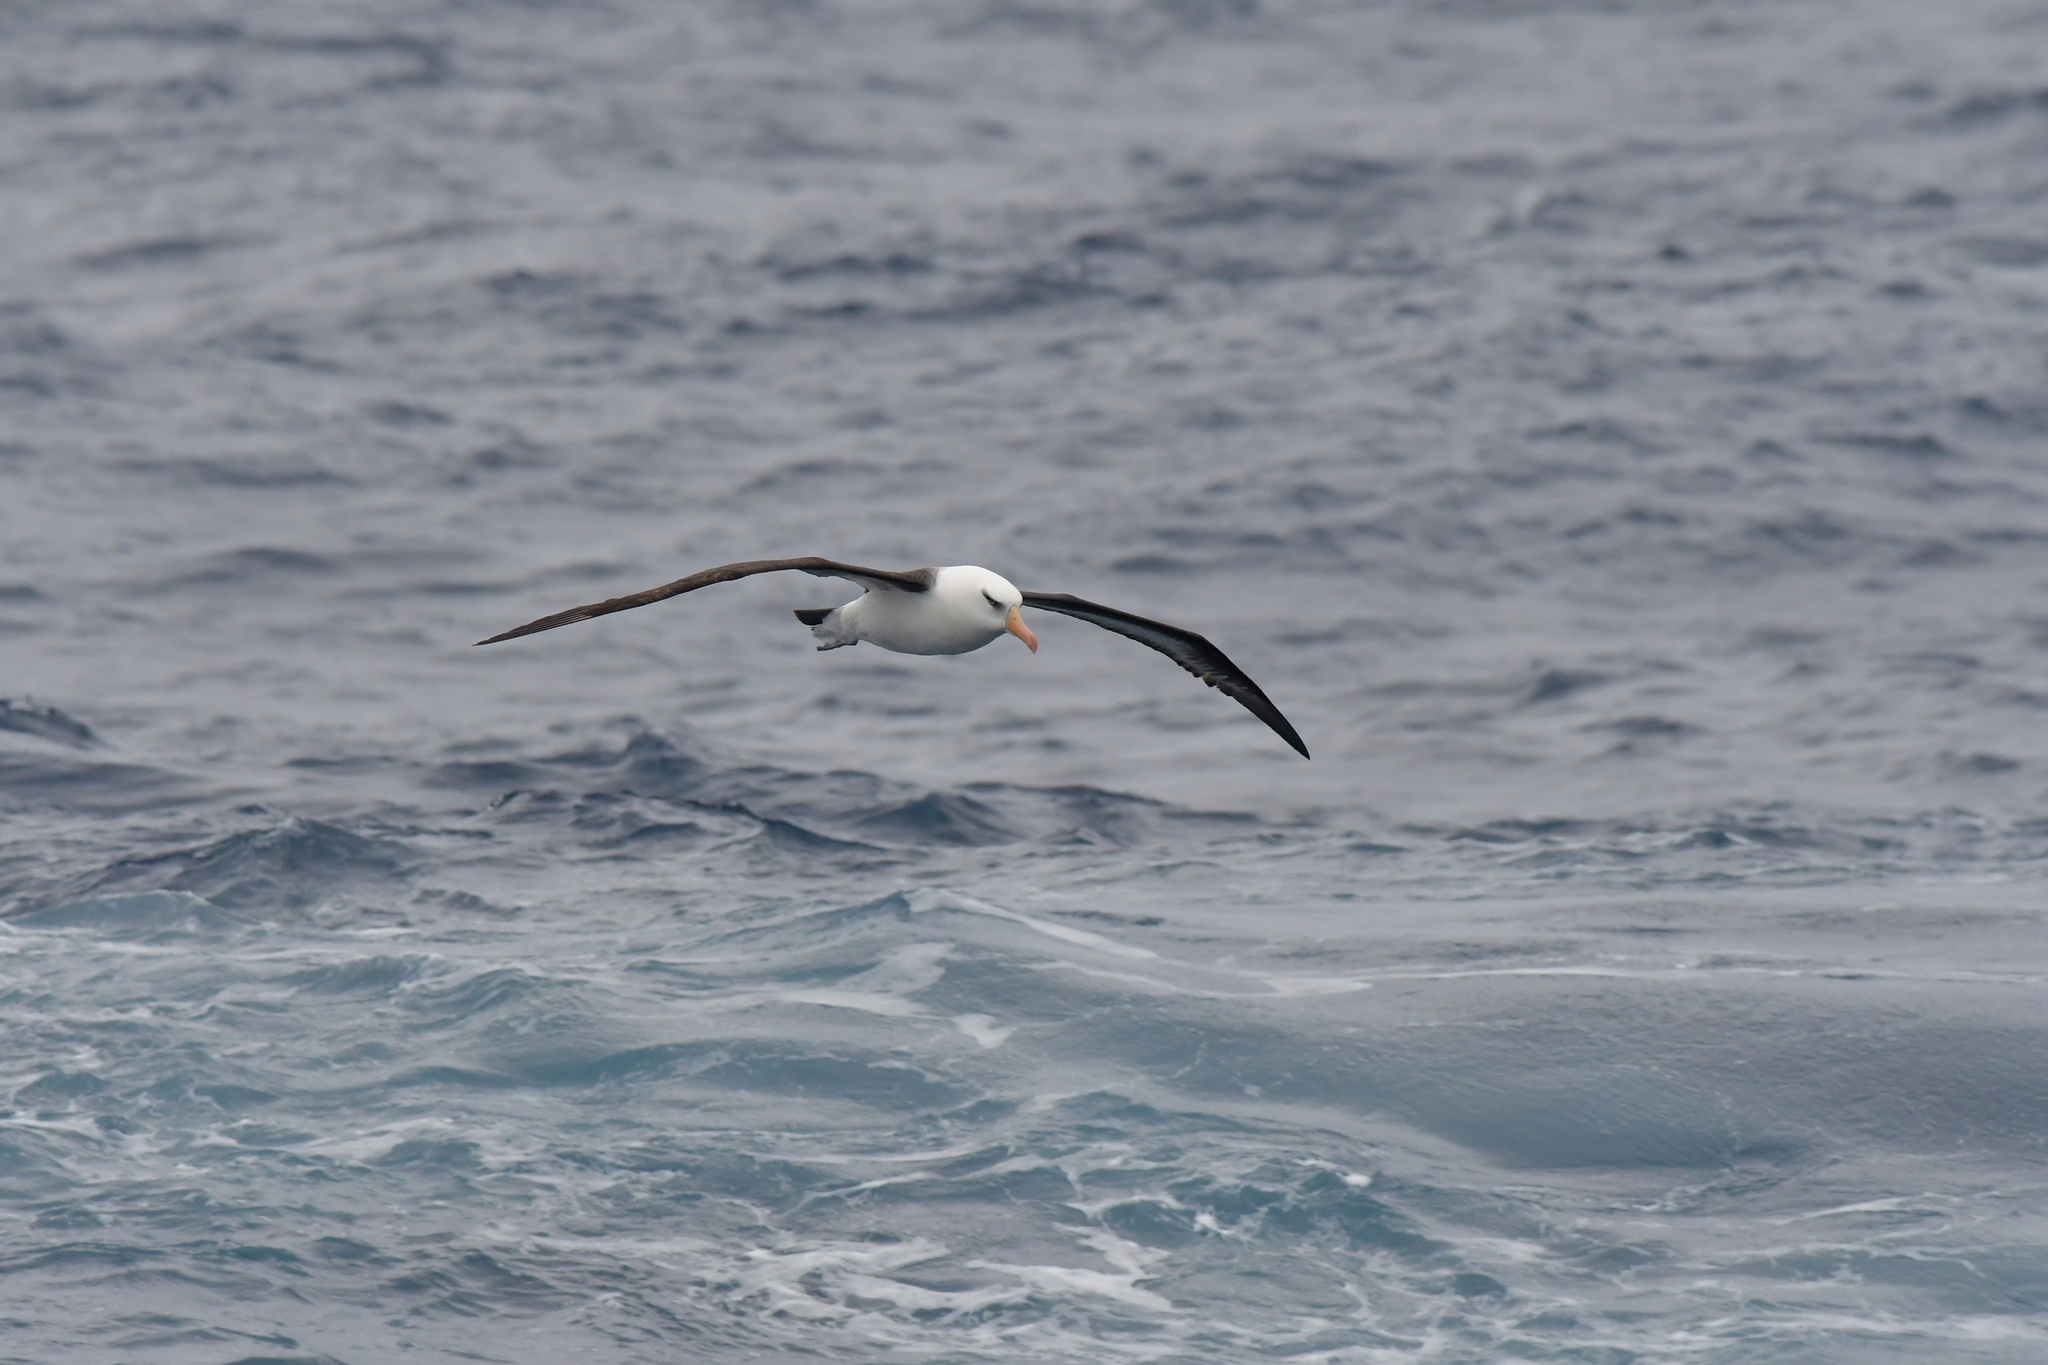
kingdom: Animalia
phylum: Chordata
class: Aves
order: Procellariiformes
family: Diomedeidae
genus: Thalassarche
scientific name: Thalassarche impavida
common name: Campbell albatross
